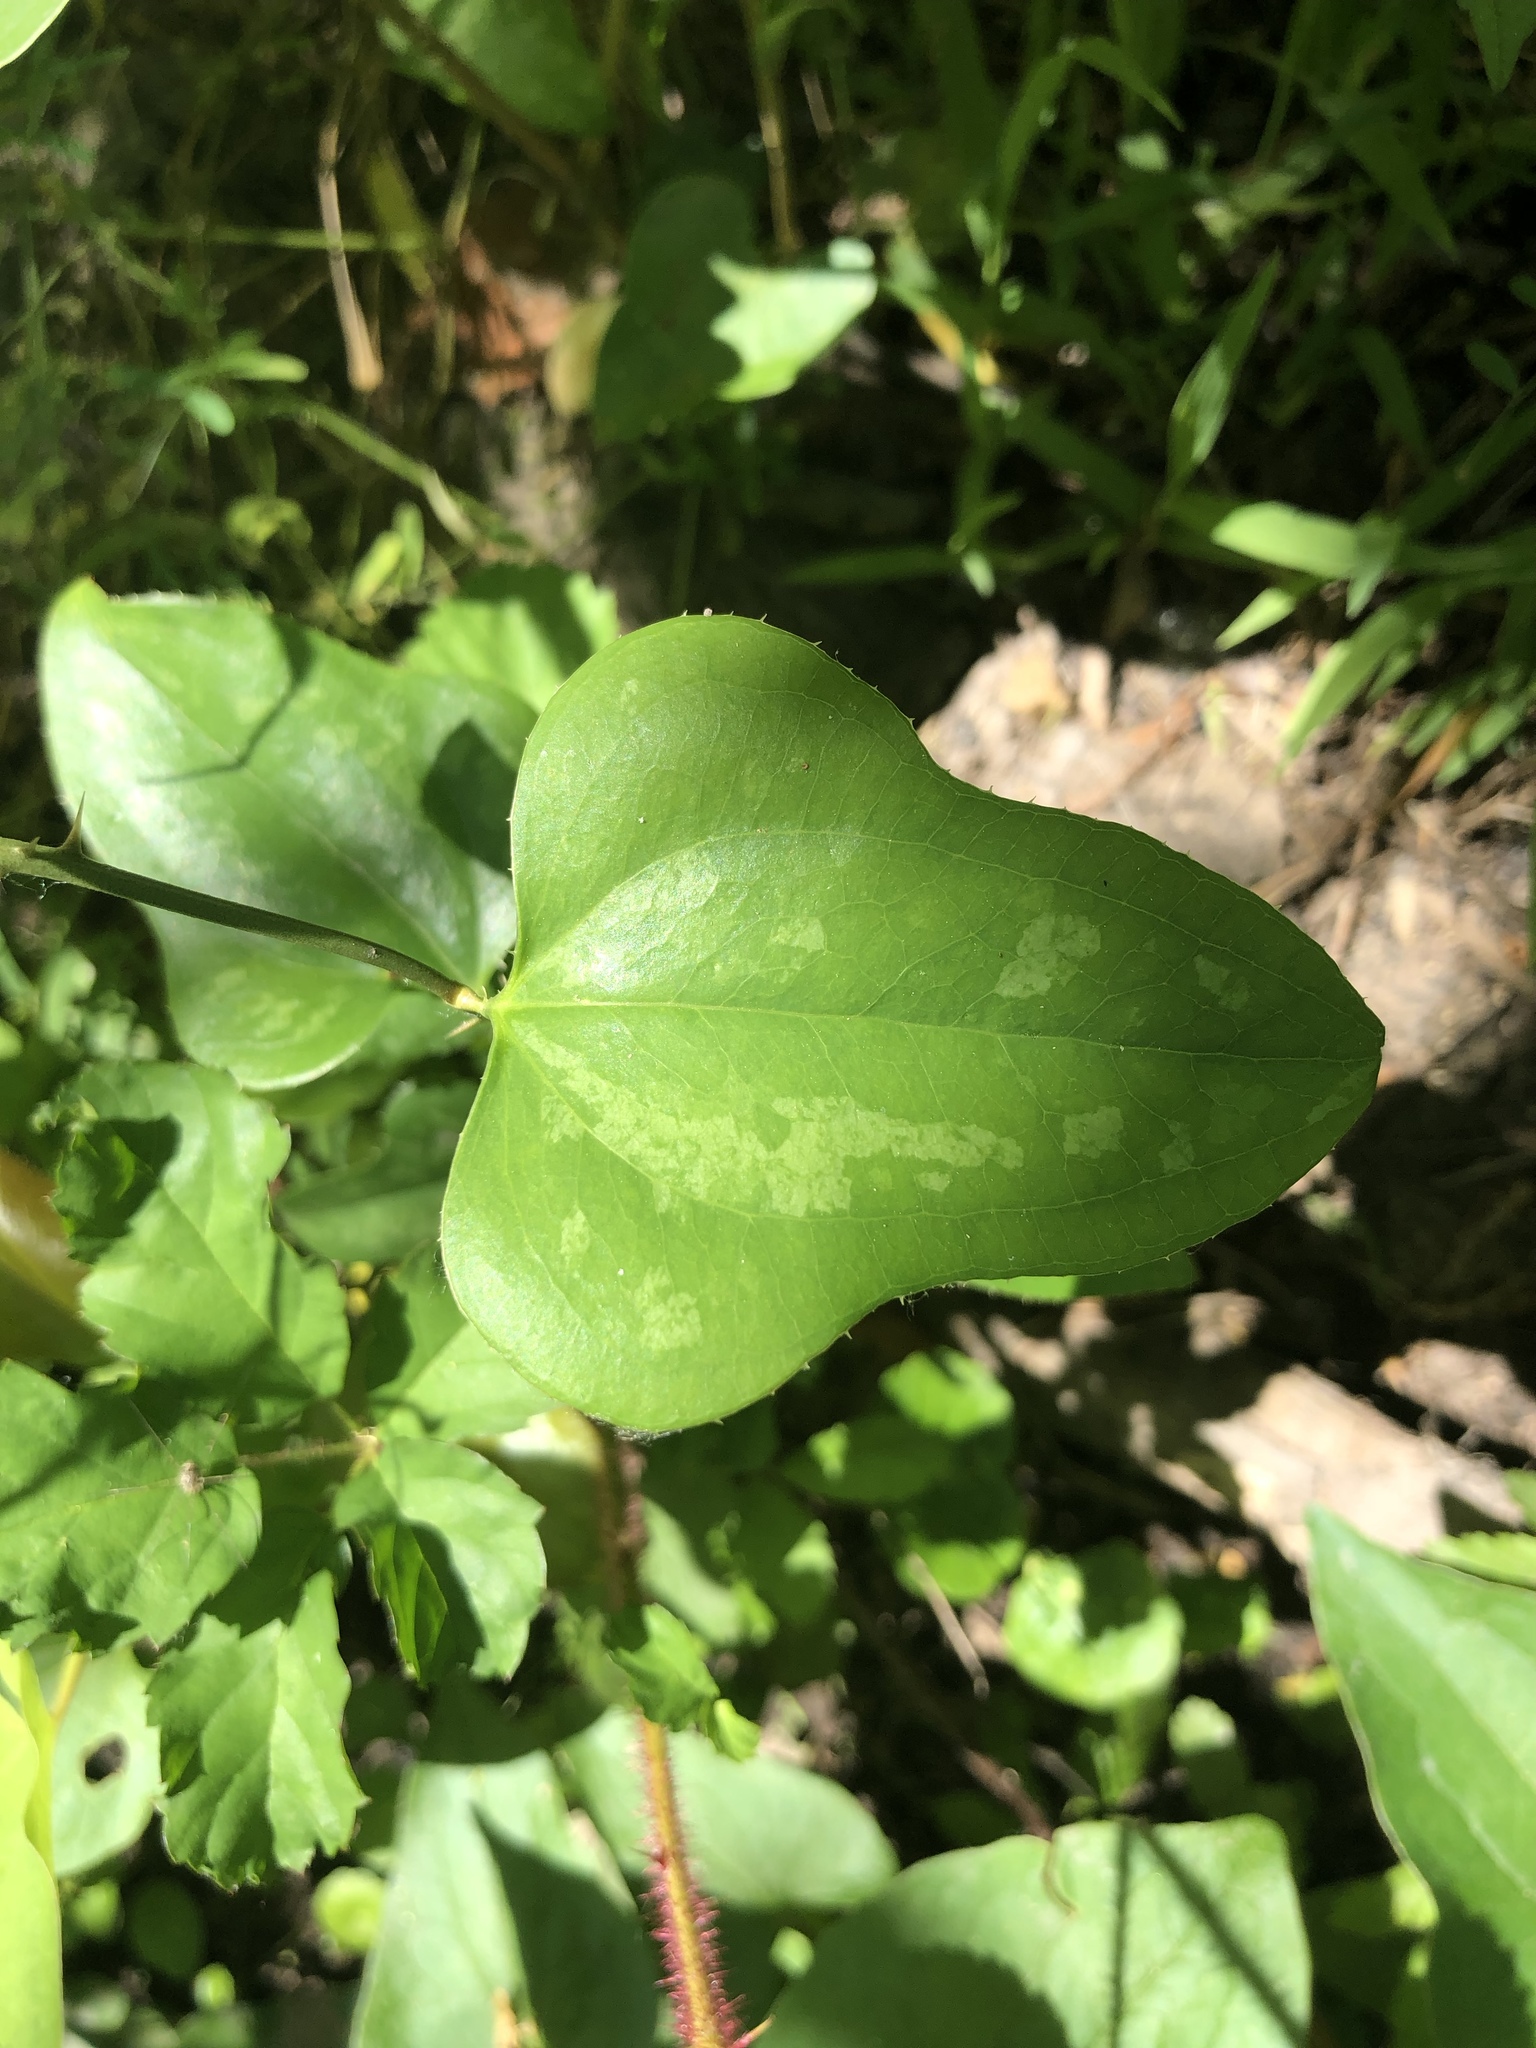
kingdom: Plantae
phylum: Tracheophyta
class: Liliopsida
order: Liliales
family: Smilacaceae
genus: Smilax
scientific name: Smilax bona-nox
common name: Catbrier
